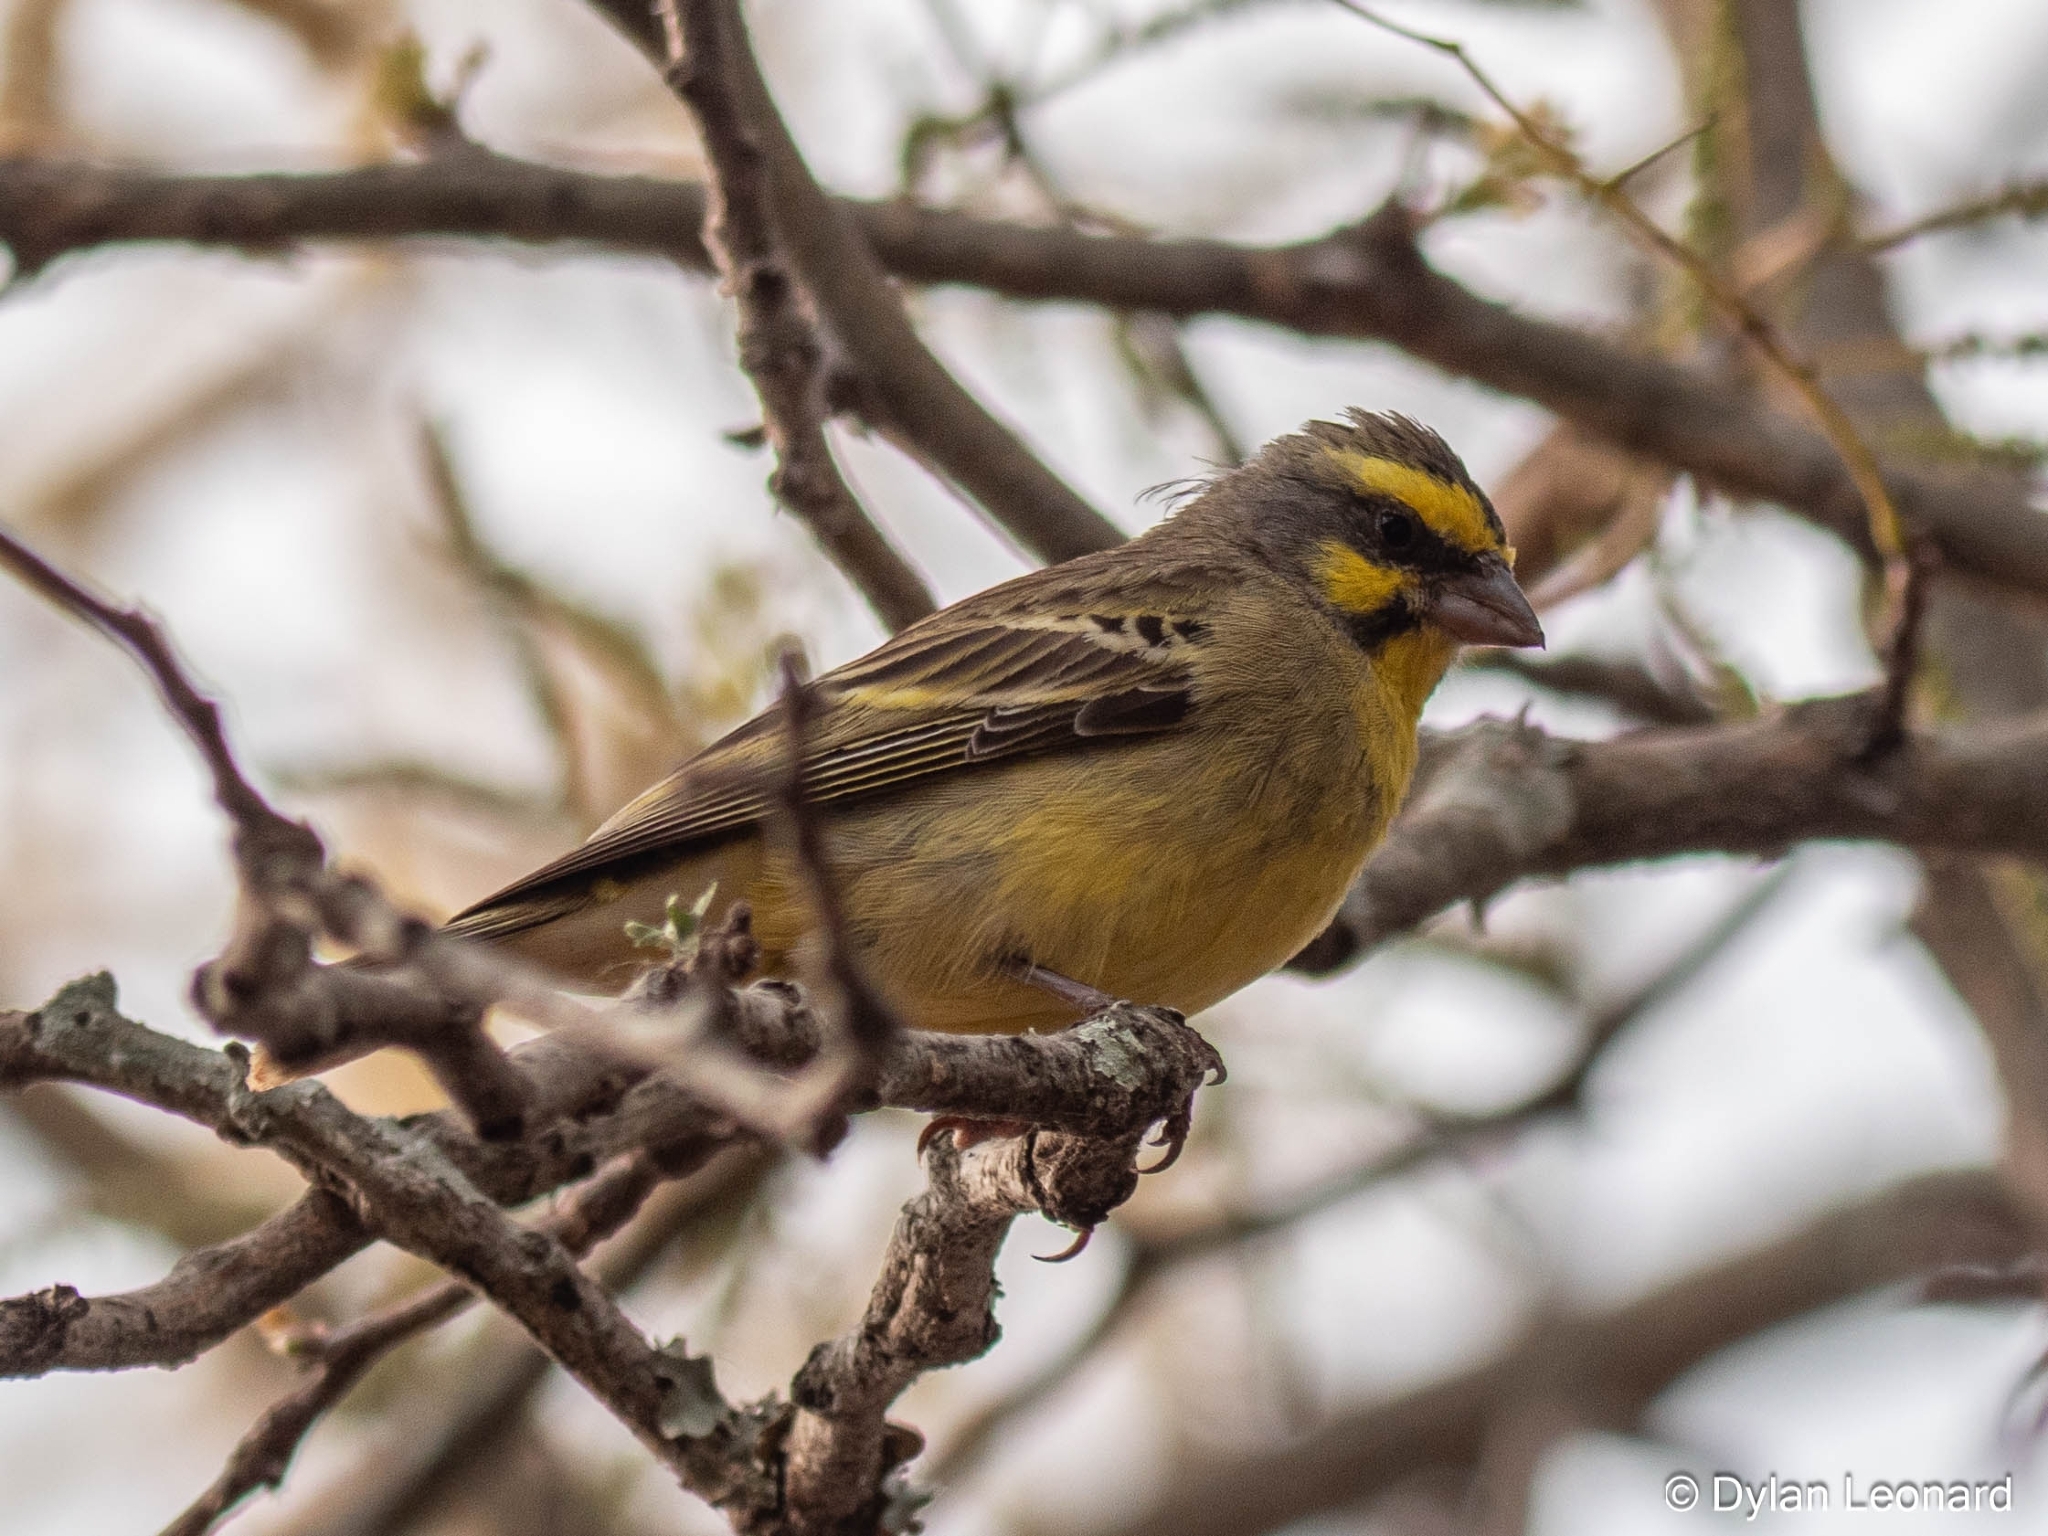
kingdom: Animalia
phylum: Chordata
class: Aves
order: Passeriformes
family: Fringillidae
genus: Crithagra
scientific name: Crithagra mozambica
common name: Yellow-fronted canary
